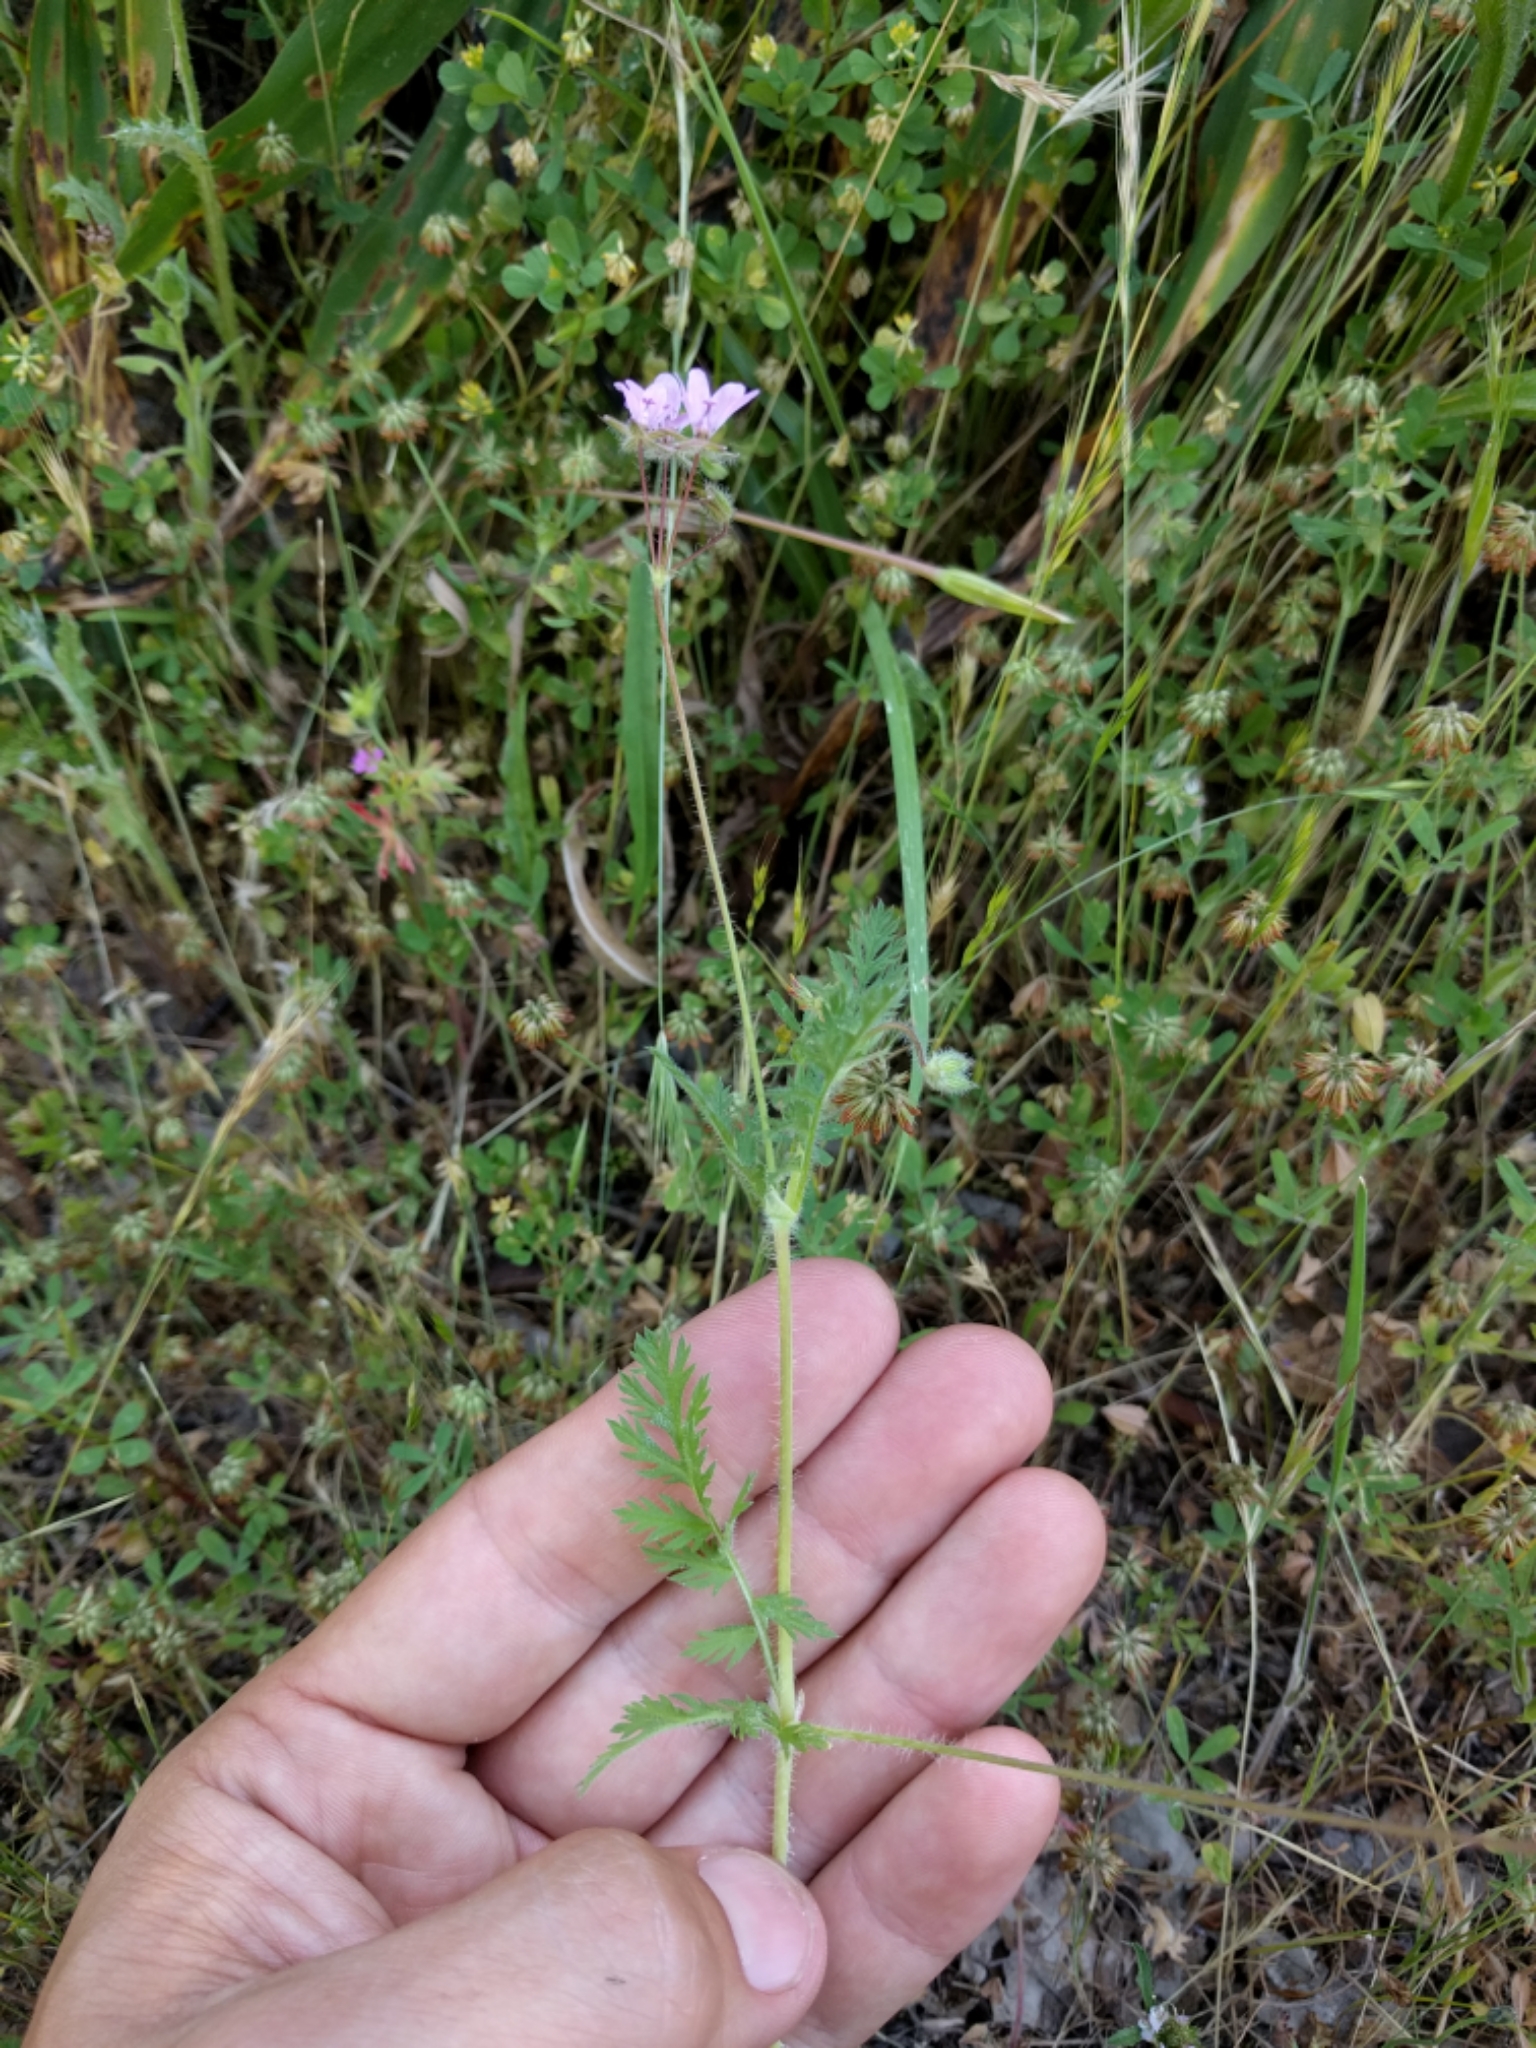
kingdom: Plantae
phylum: Tracheophyta
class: Magnoliopsida
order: Geraniales
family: Geraniaceae
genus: Erodium
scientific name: Erodium cicutarium
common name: Common stork's-bill
